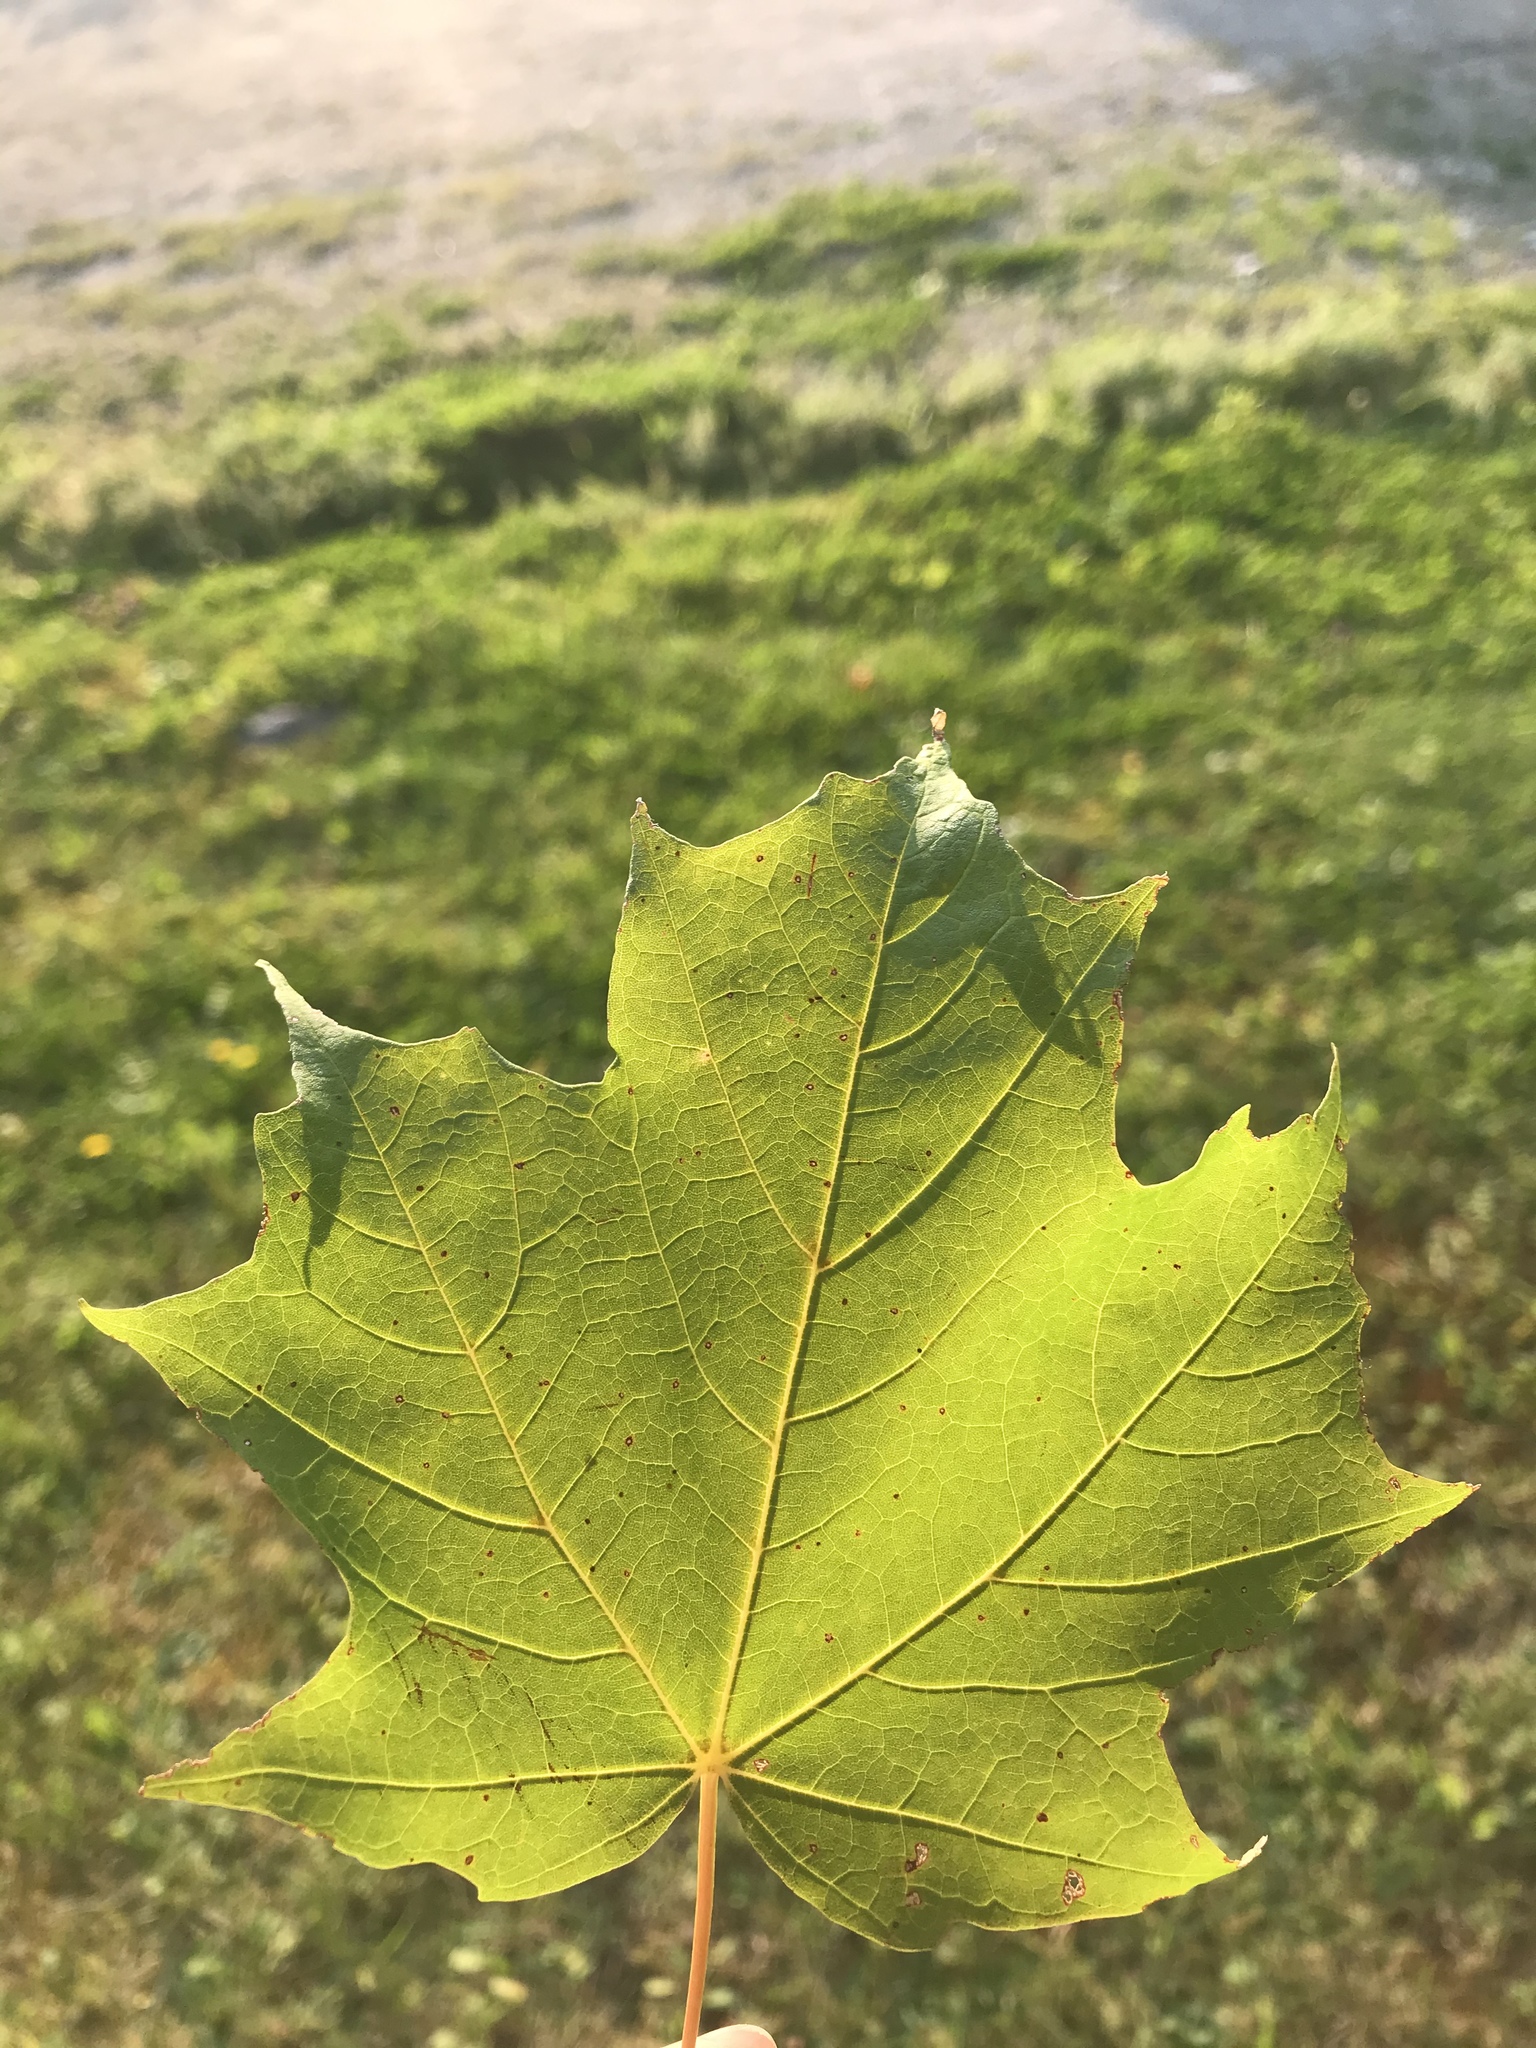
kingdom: Plantae
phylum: Tracheophyta
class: Magnoliopsida
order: Sapindales
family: Sapindaceae
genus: Acer
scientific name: Acer saccharum
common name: Sugar maple
